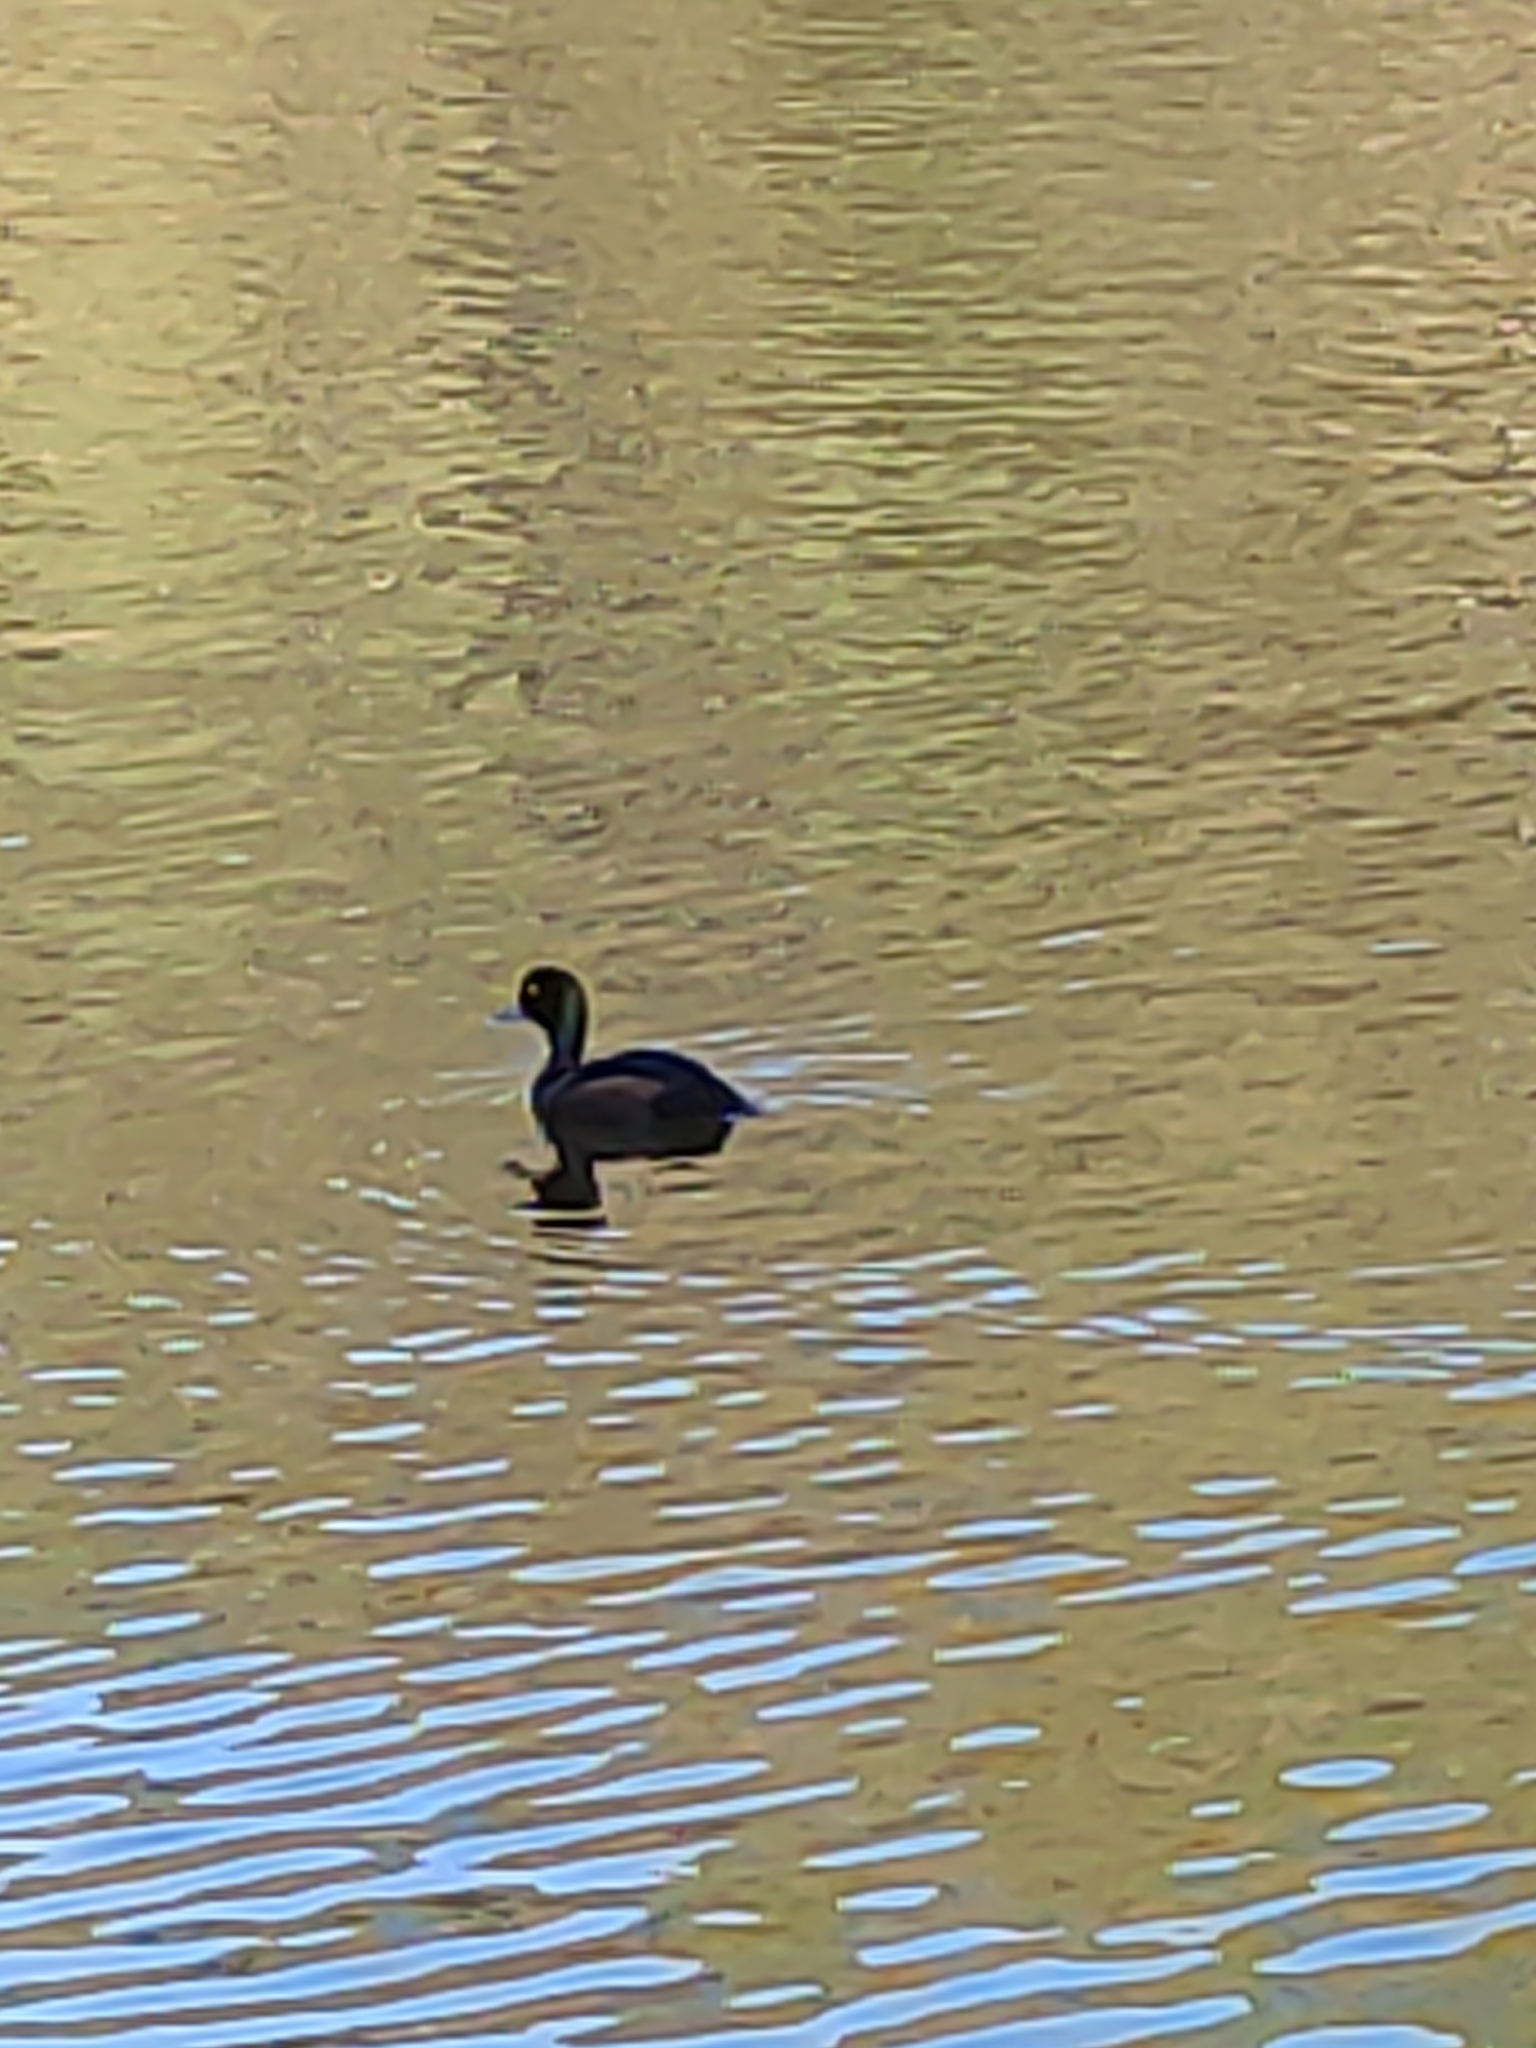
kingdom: Animalia
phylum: Chordata
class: Aves
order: Anseriformes
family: Anatidae
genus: Aythya
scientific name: Aythya novaeseelandiae
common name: New zealand scaup
